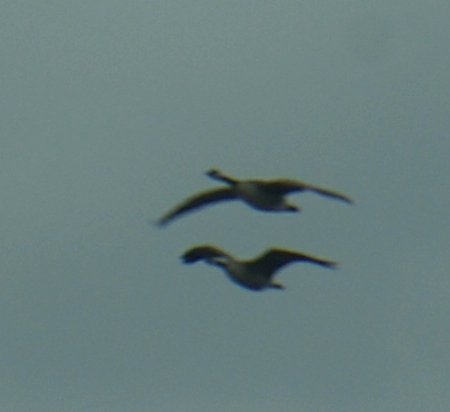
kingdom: Animalia
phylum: Chordata
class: Aves
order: Anseriformes
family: Anatidae
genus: Branta
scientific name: Branta canadensis
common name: Canada goose
